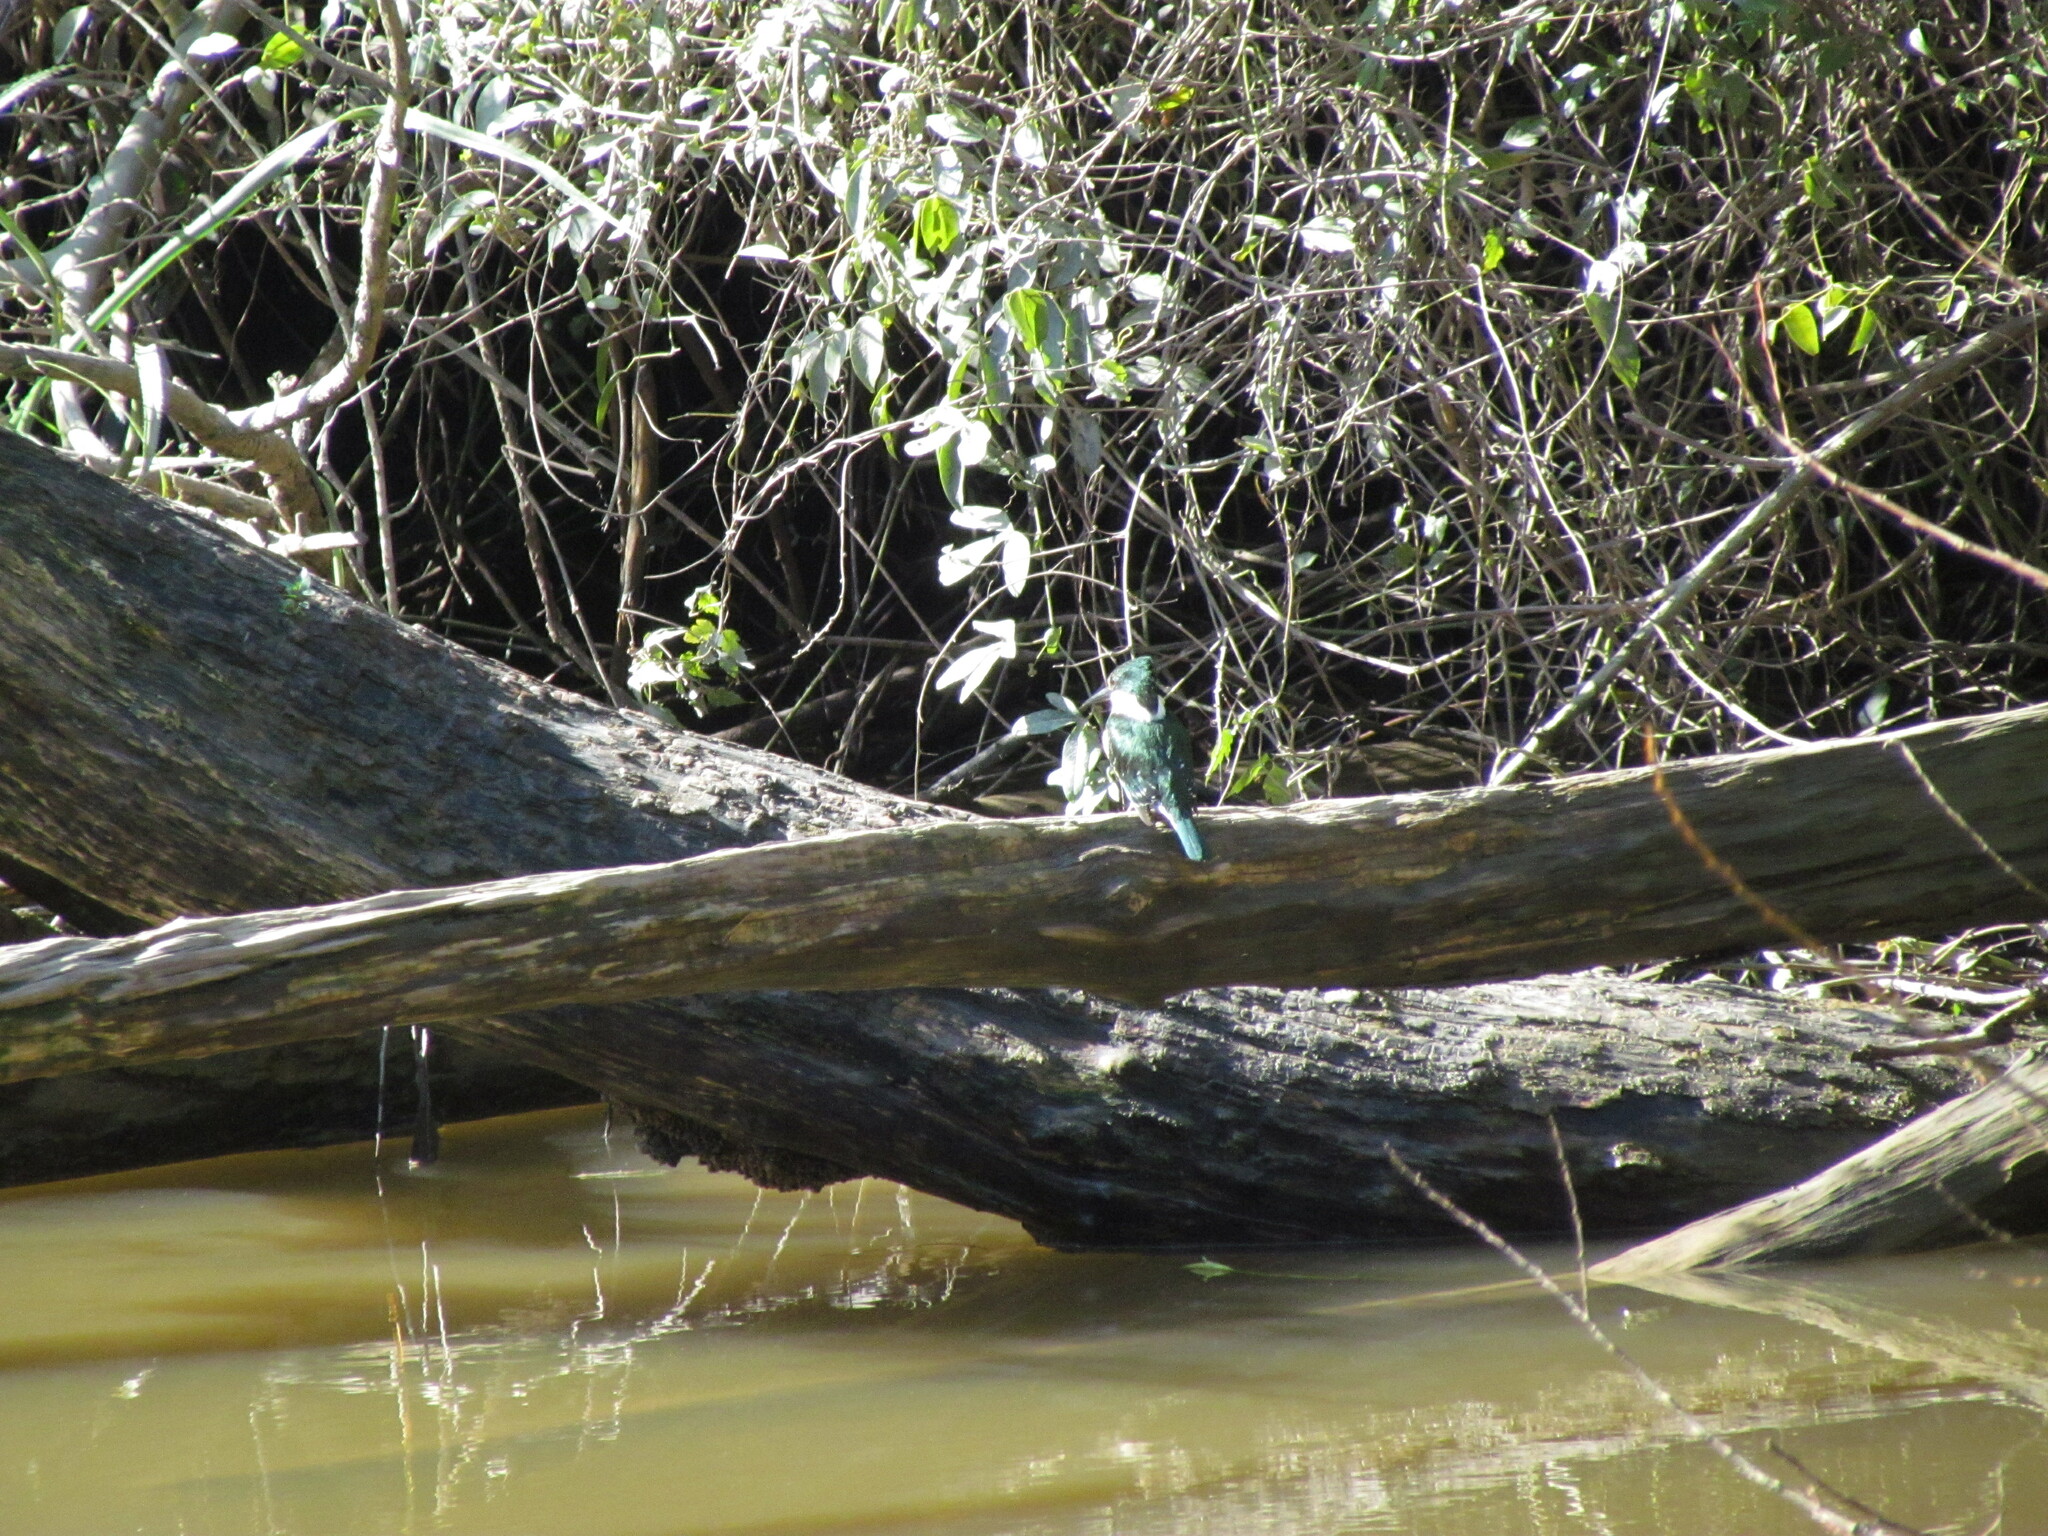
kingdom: Animalia
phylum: Chordata
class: Aves
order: Coraciiformes
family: Alcedinidae
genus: Chloroceryle
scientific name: Chloroceryle americana
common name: Green kingfisher
